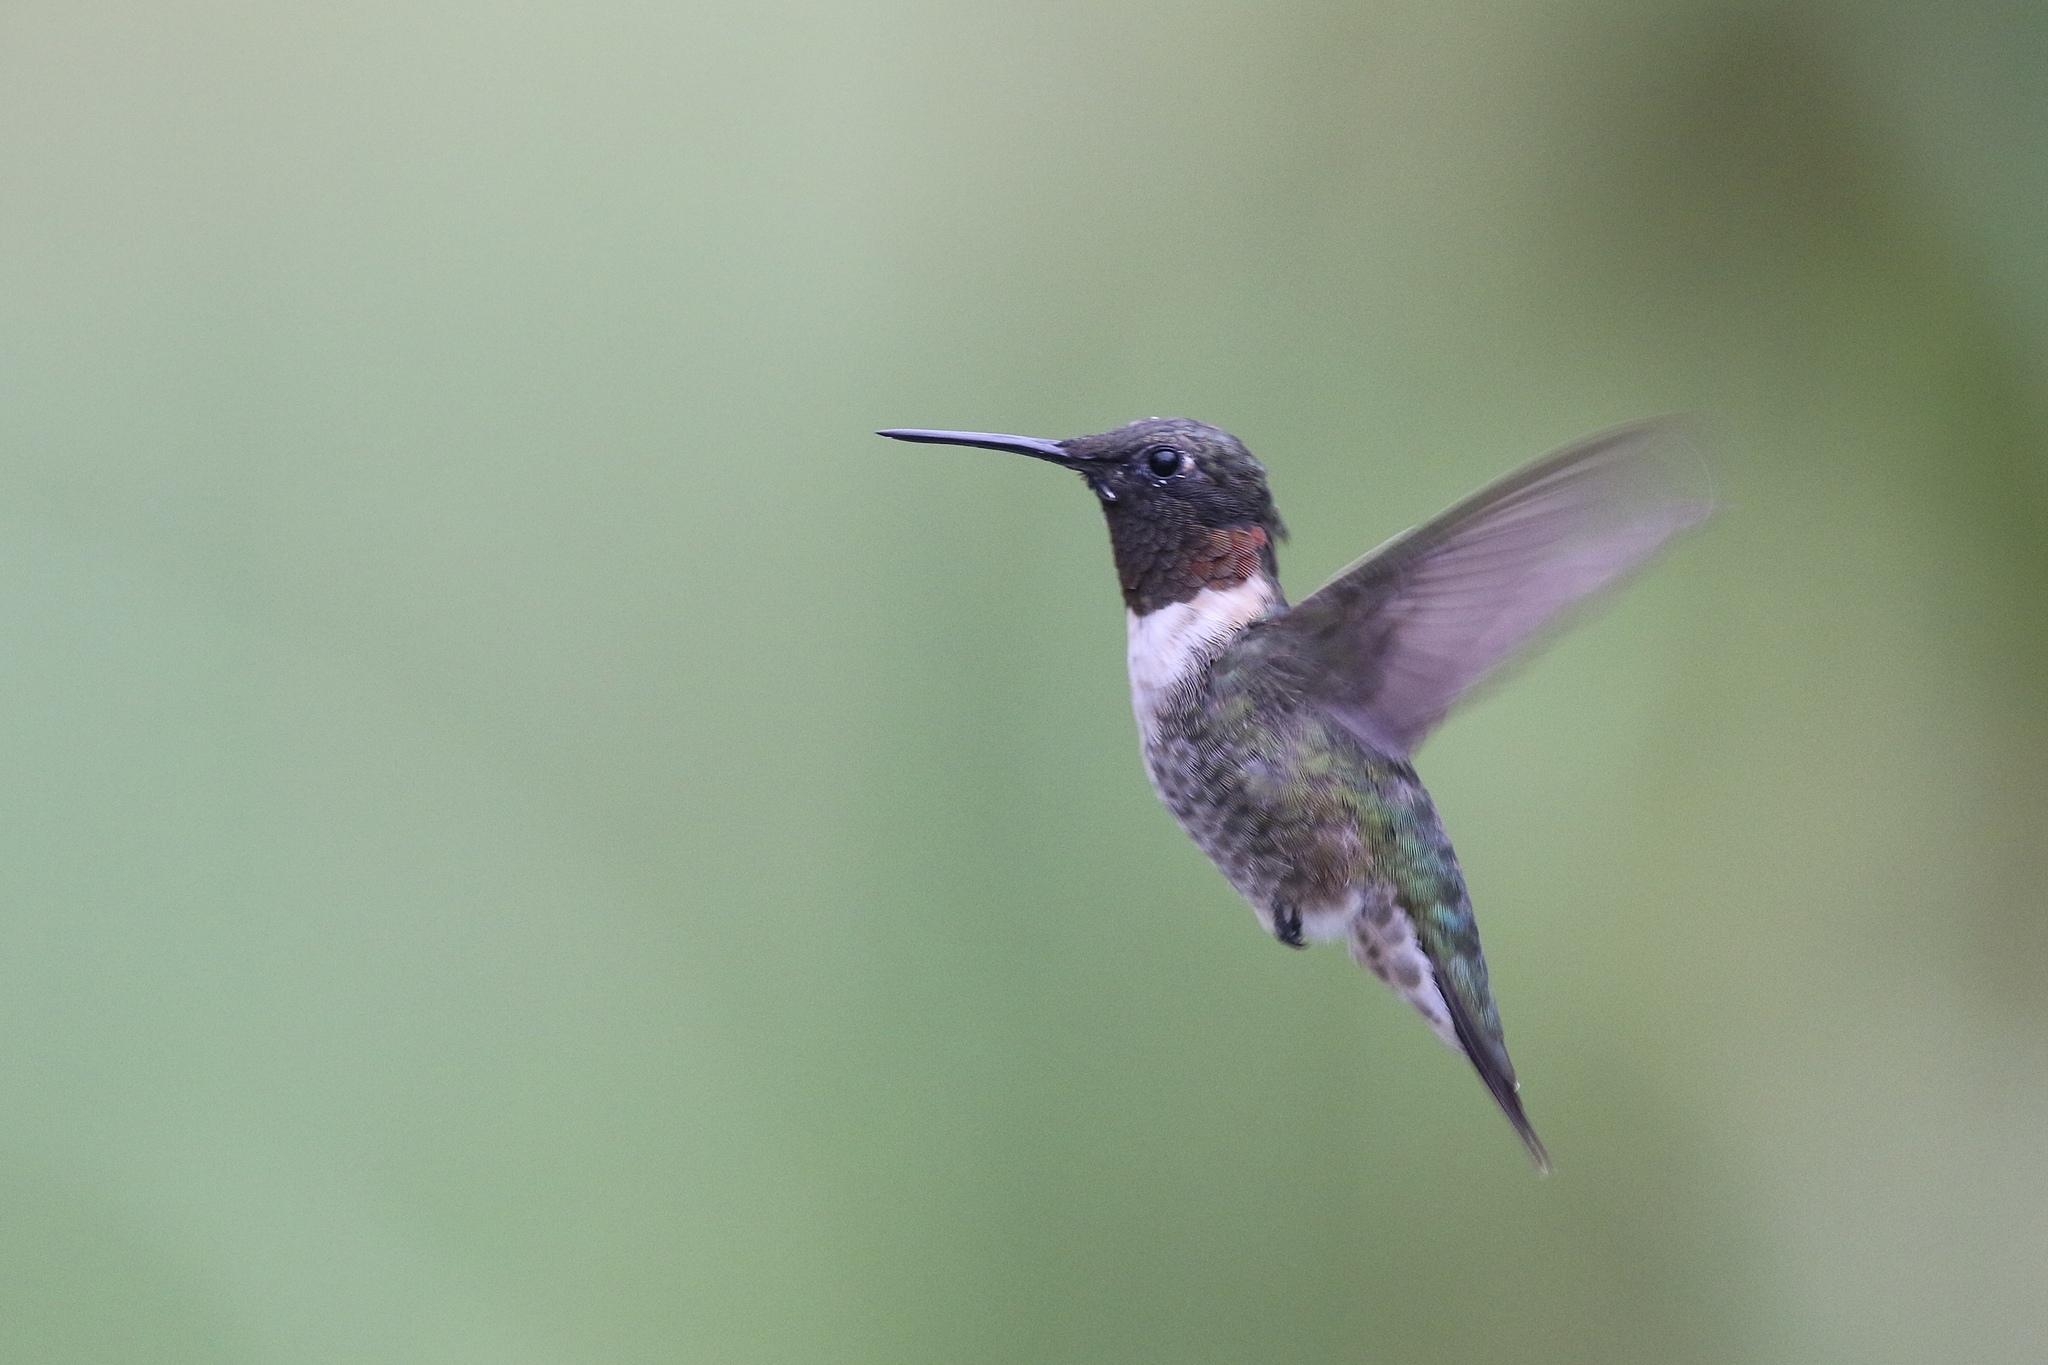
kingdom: Animalia
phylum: Chordata
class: Aves
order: Apodiformes
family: Trochilidae
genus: Archilochus
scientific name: Archilochus colubris
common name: Ruby-throated hummingbird
